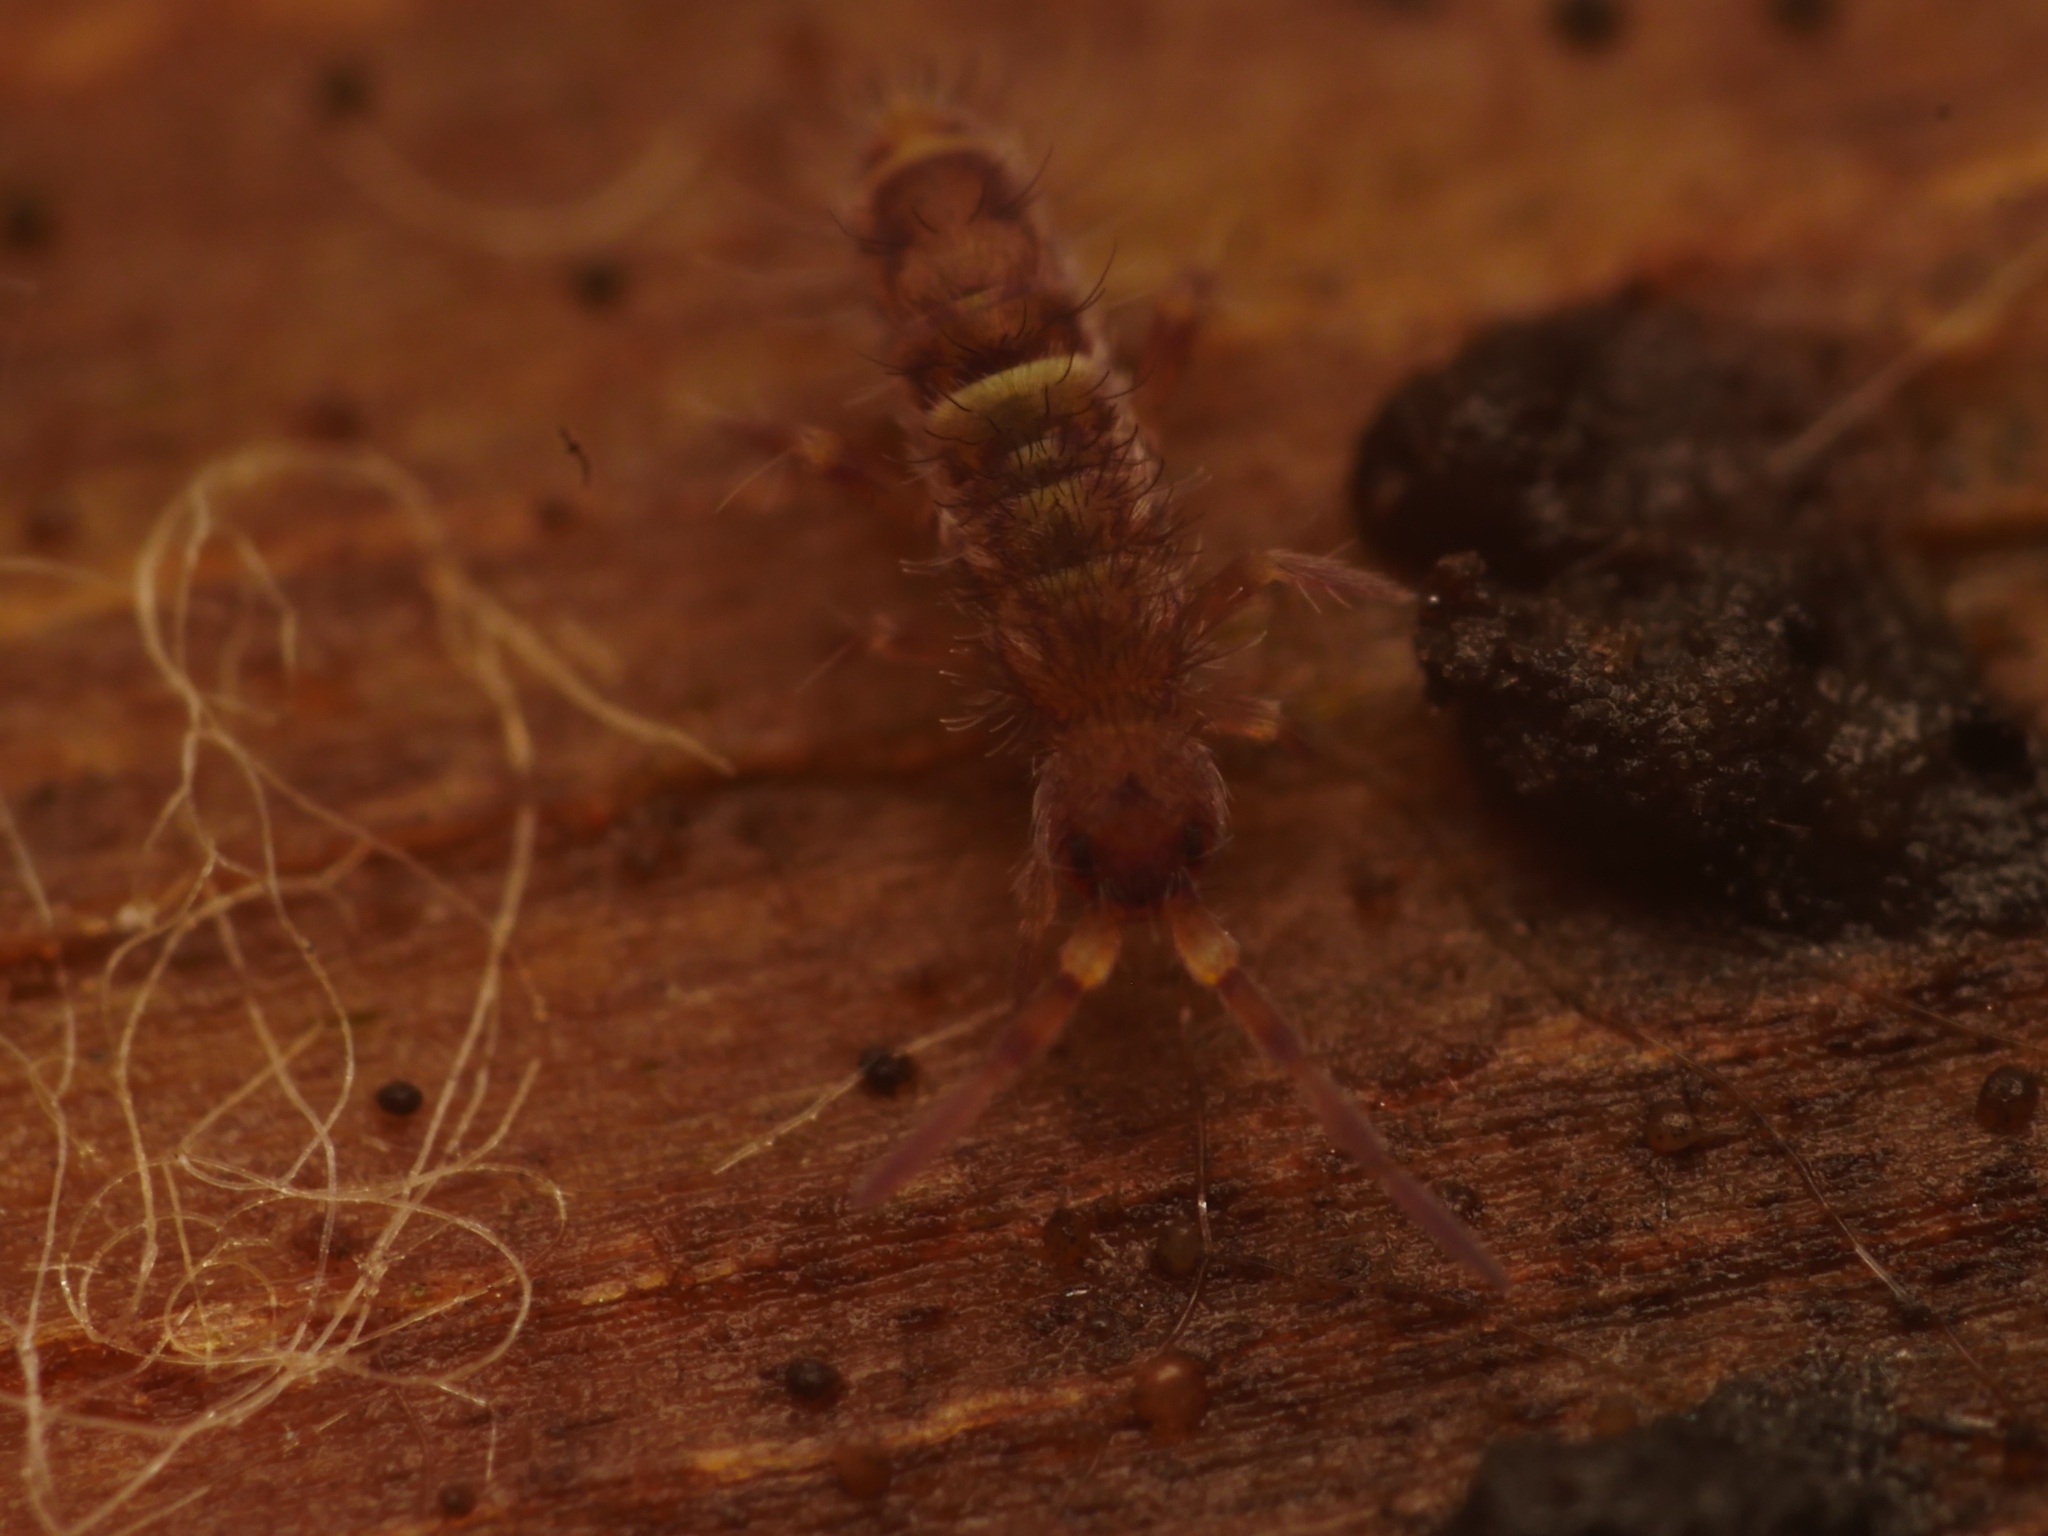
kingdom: Animalia
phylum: Arthropoda
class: Collembola
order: Entomobryomorpha
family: Orchesellidae
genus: Orchesella
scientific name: Orchesella cincta
